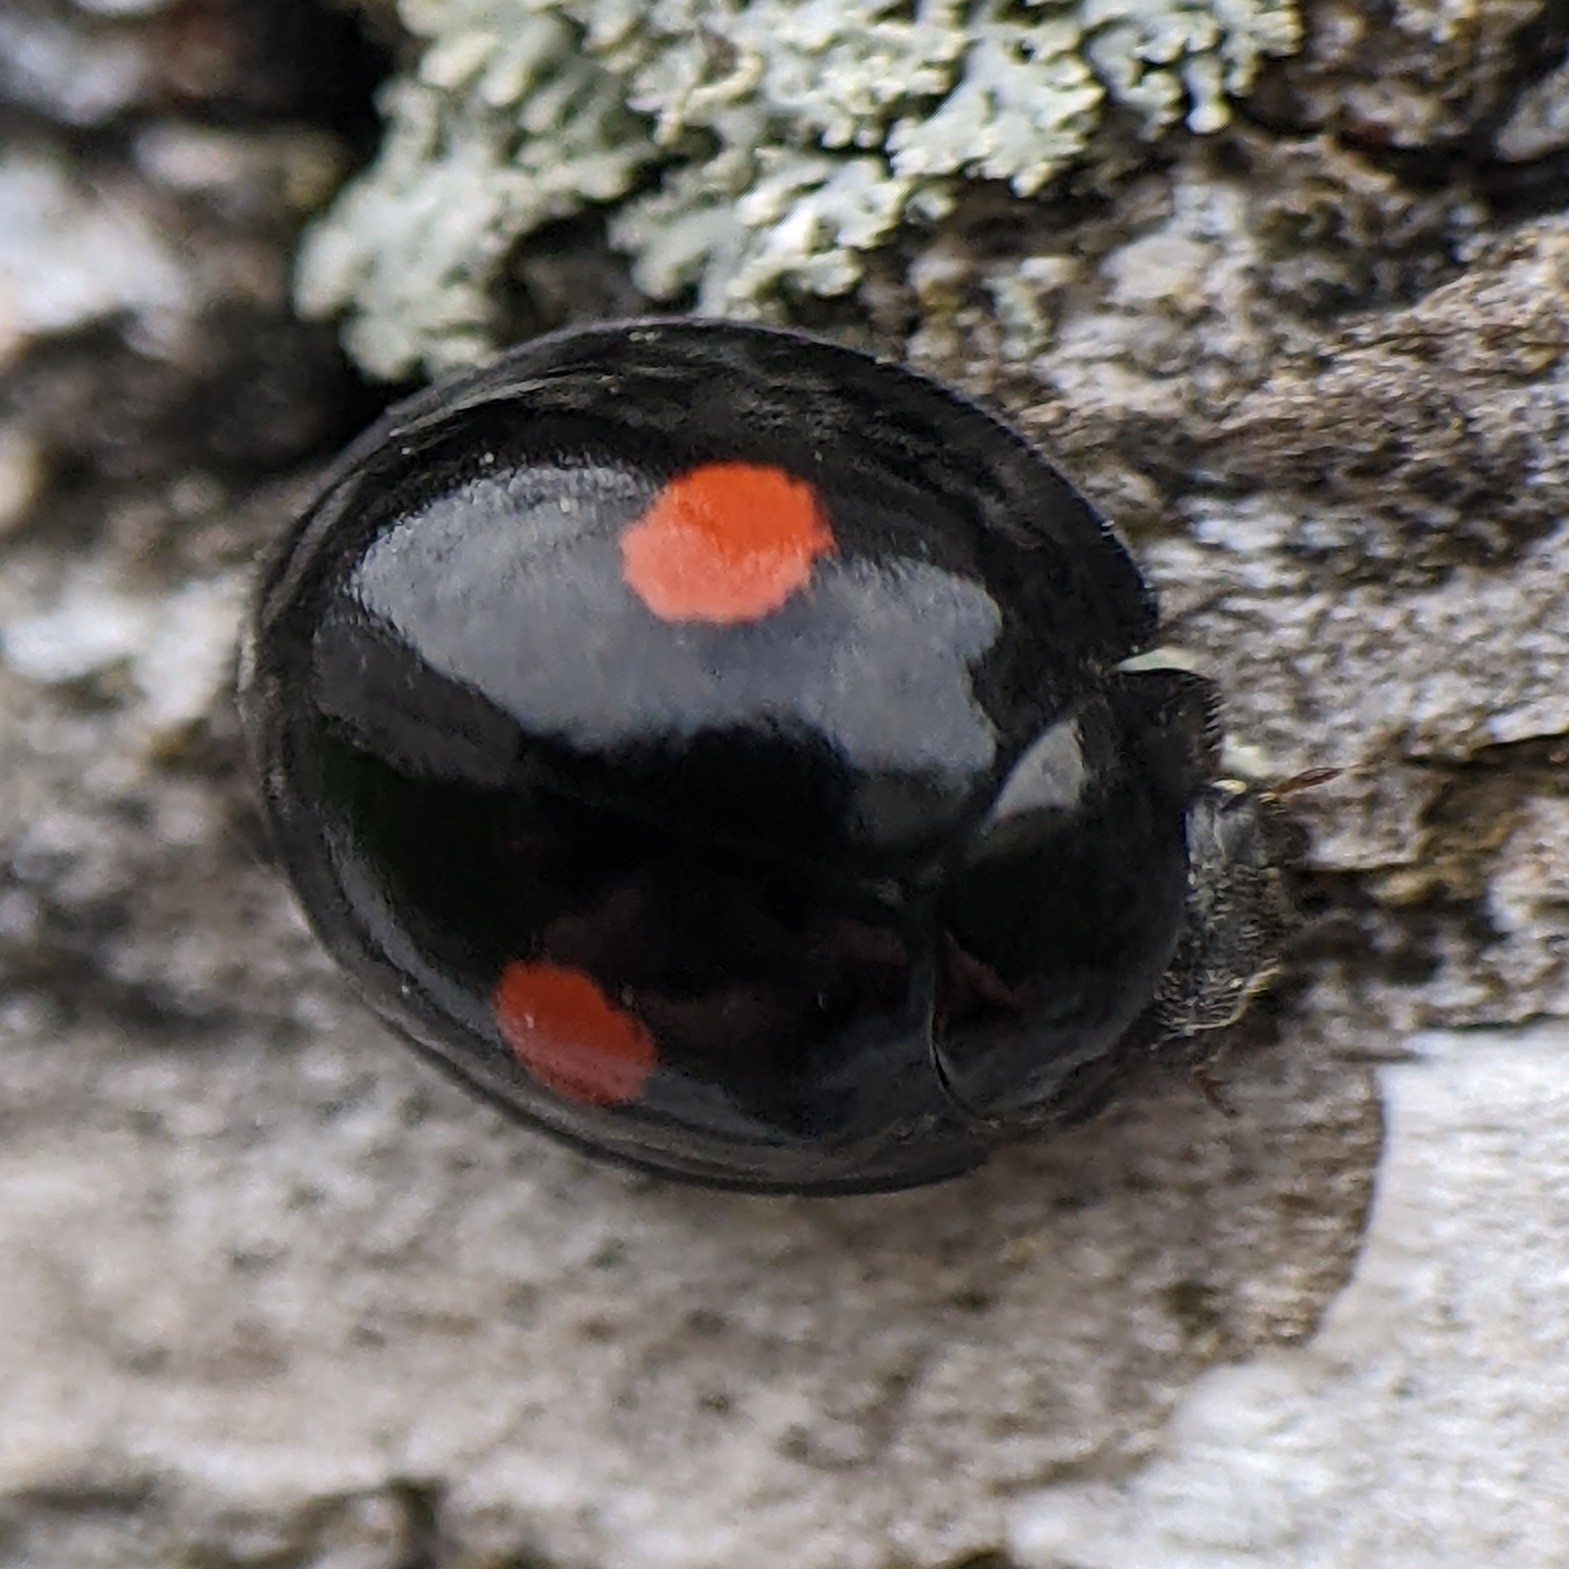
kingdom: Animalia
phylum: Arthropoda
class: Insecta
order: Coleoptera
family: Coccinellidae
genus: Chilocorus
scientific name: Chilocorus stigma
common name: Twicestabbed lady beetle
